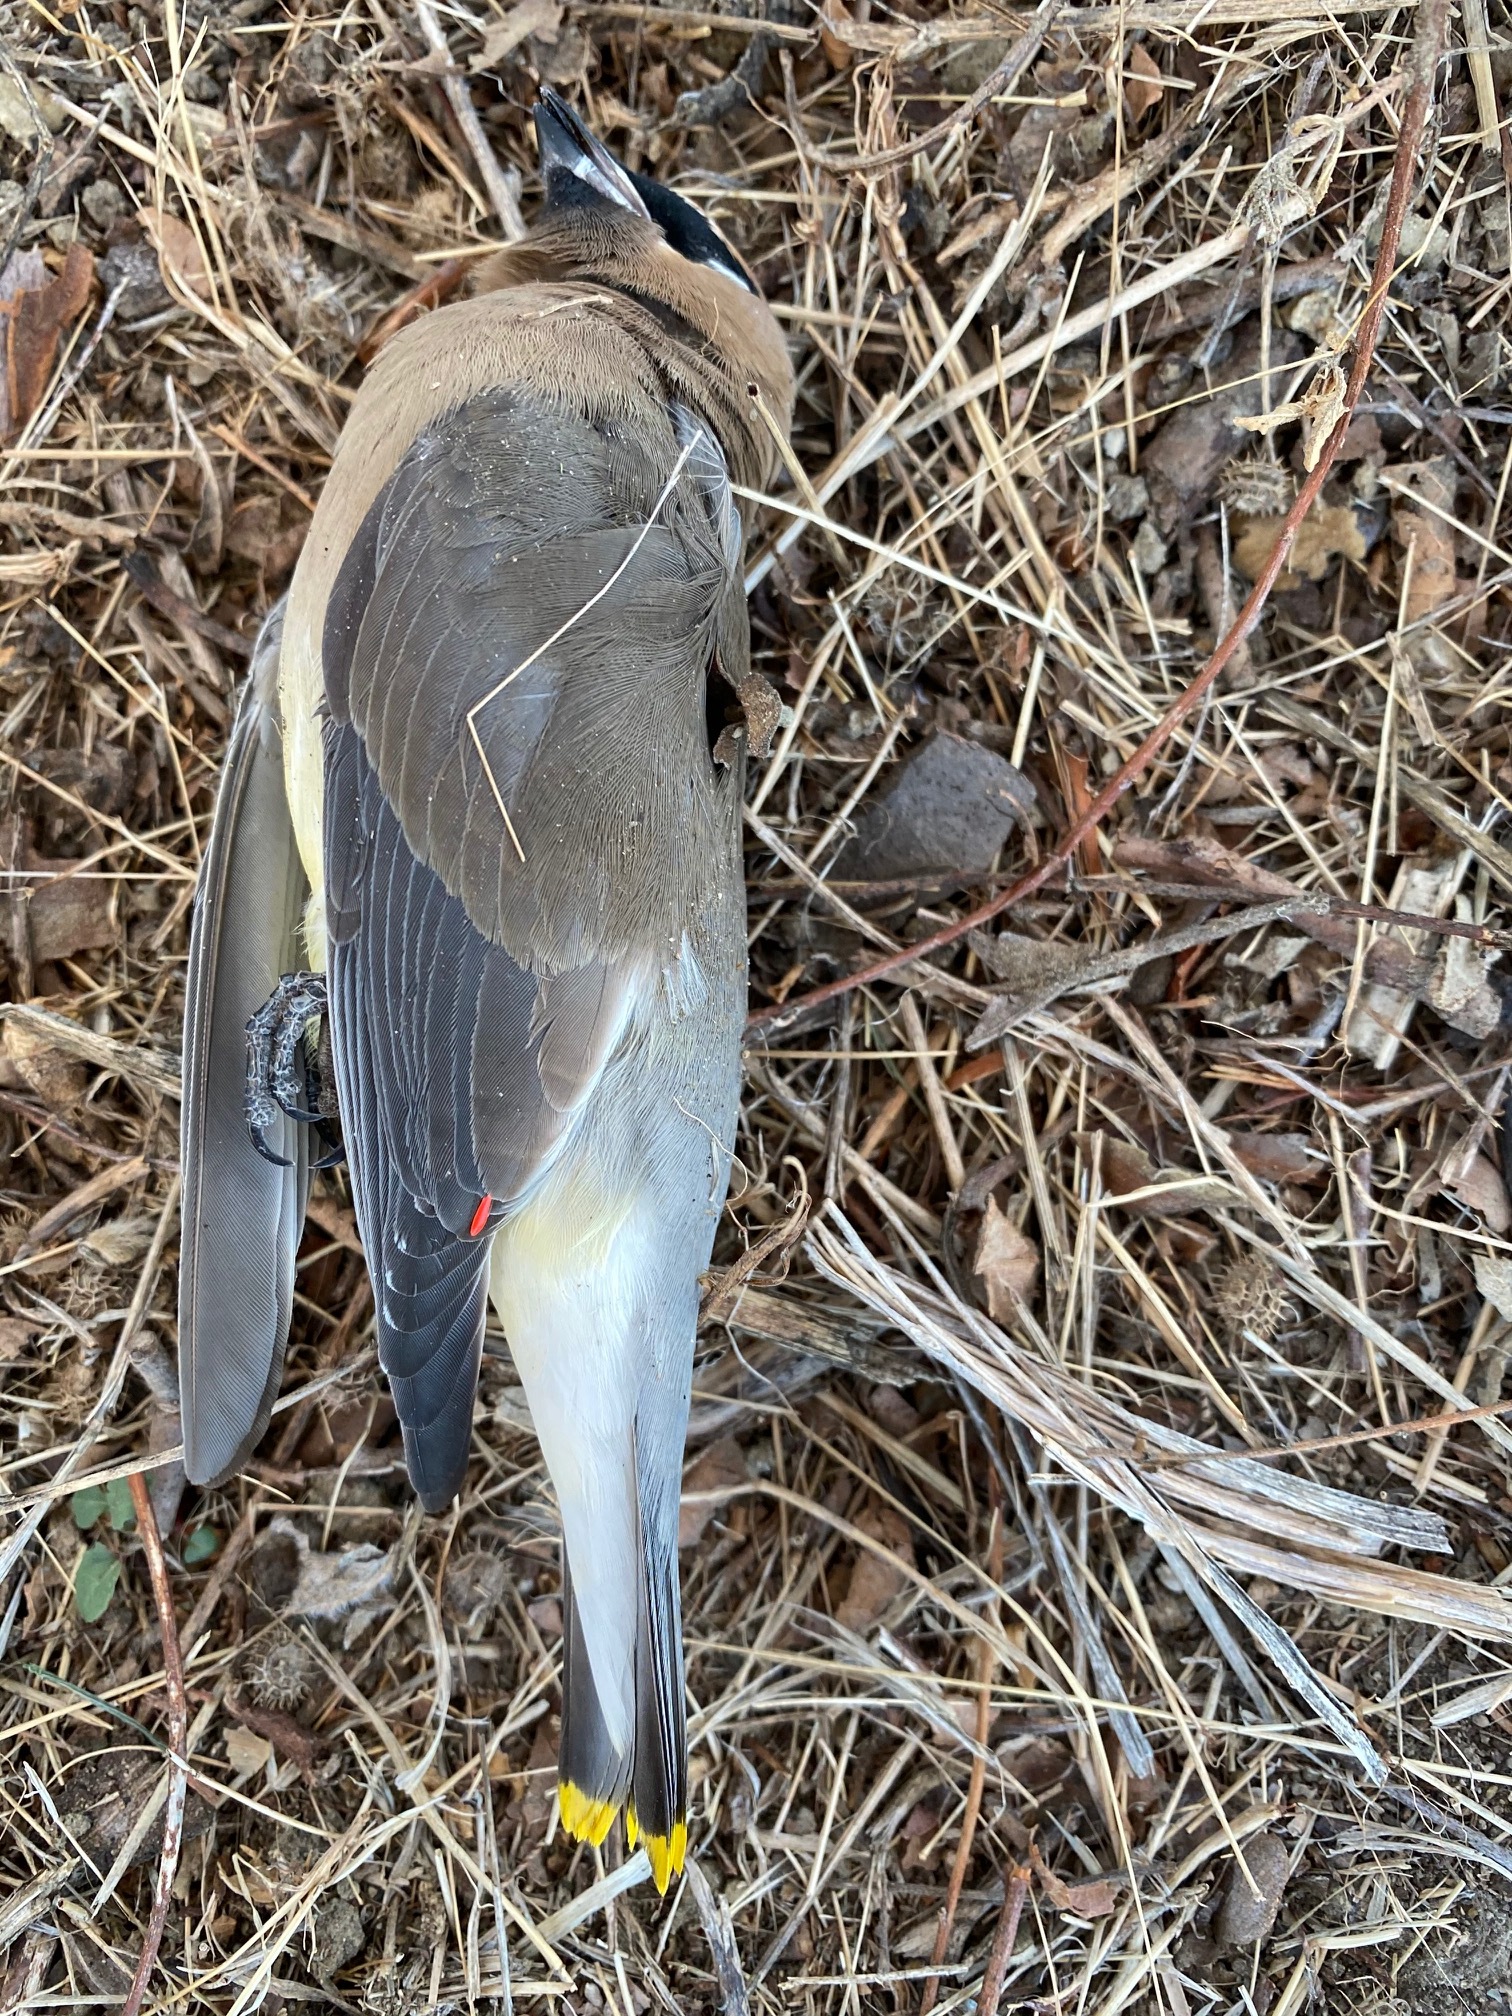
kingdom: Animalia
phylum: Chordata
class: Aves
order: Passeriformes
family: Bombycillidae
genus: Bombycilla
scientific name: Bombycilla cedrorum
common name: Cedar waxwing
